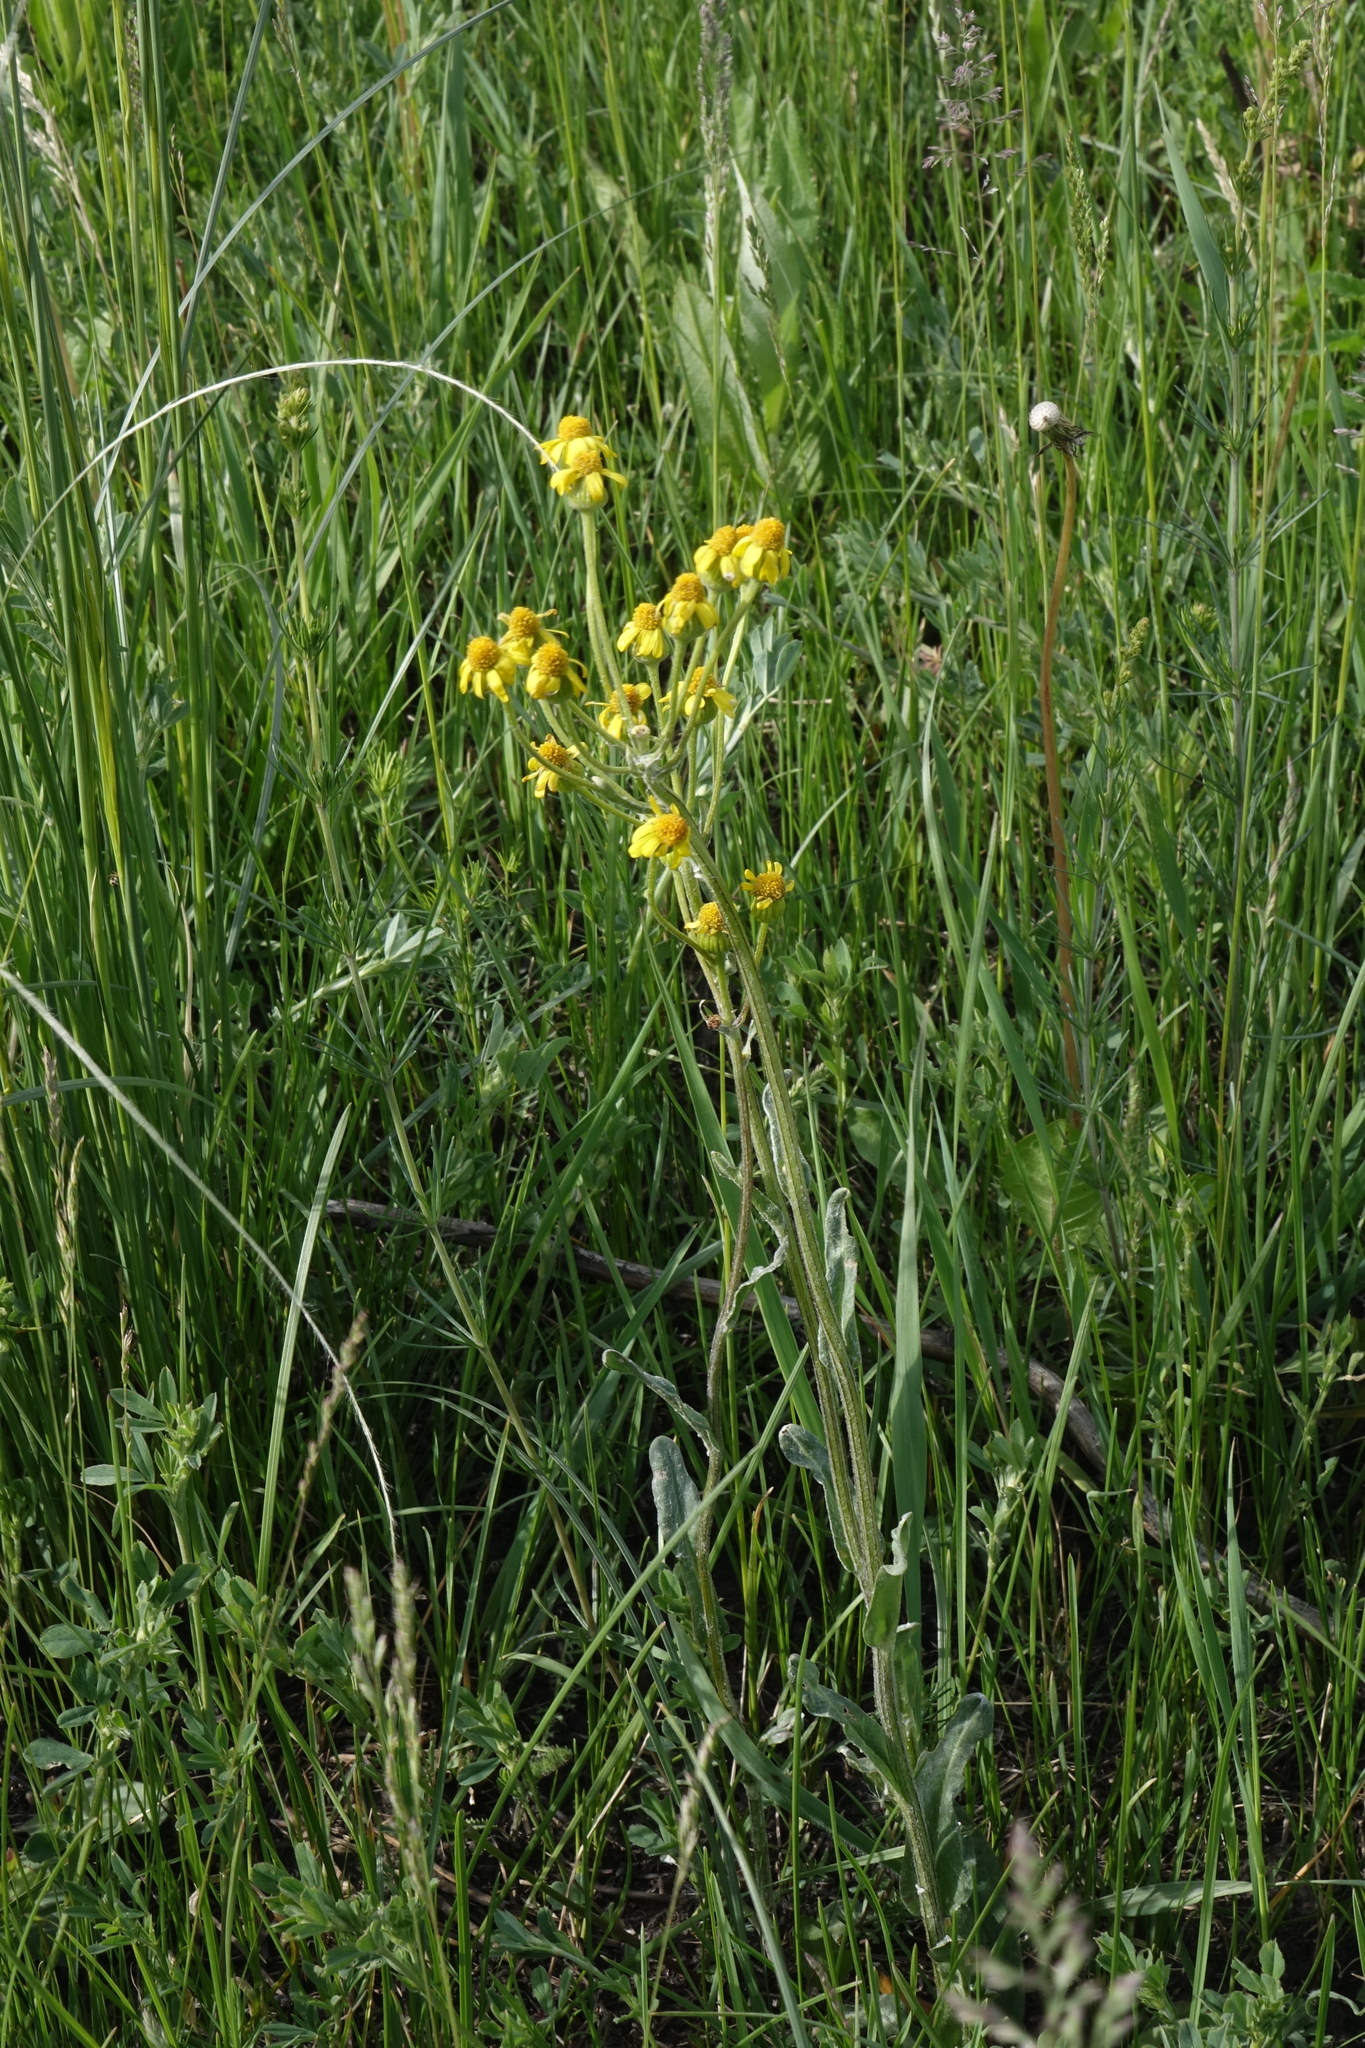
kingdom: Plantae
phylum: Tracheophyta
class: Magnoliopsida
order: Asterales
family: Asteraceae
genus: Tephroseris
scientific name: Tephroseris integrifolia
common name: Field fleawort
